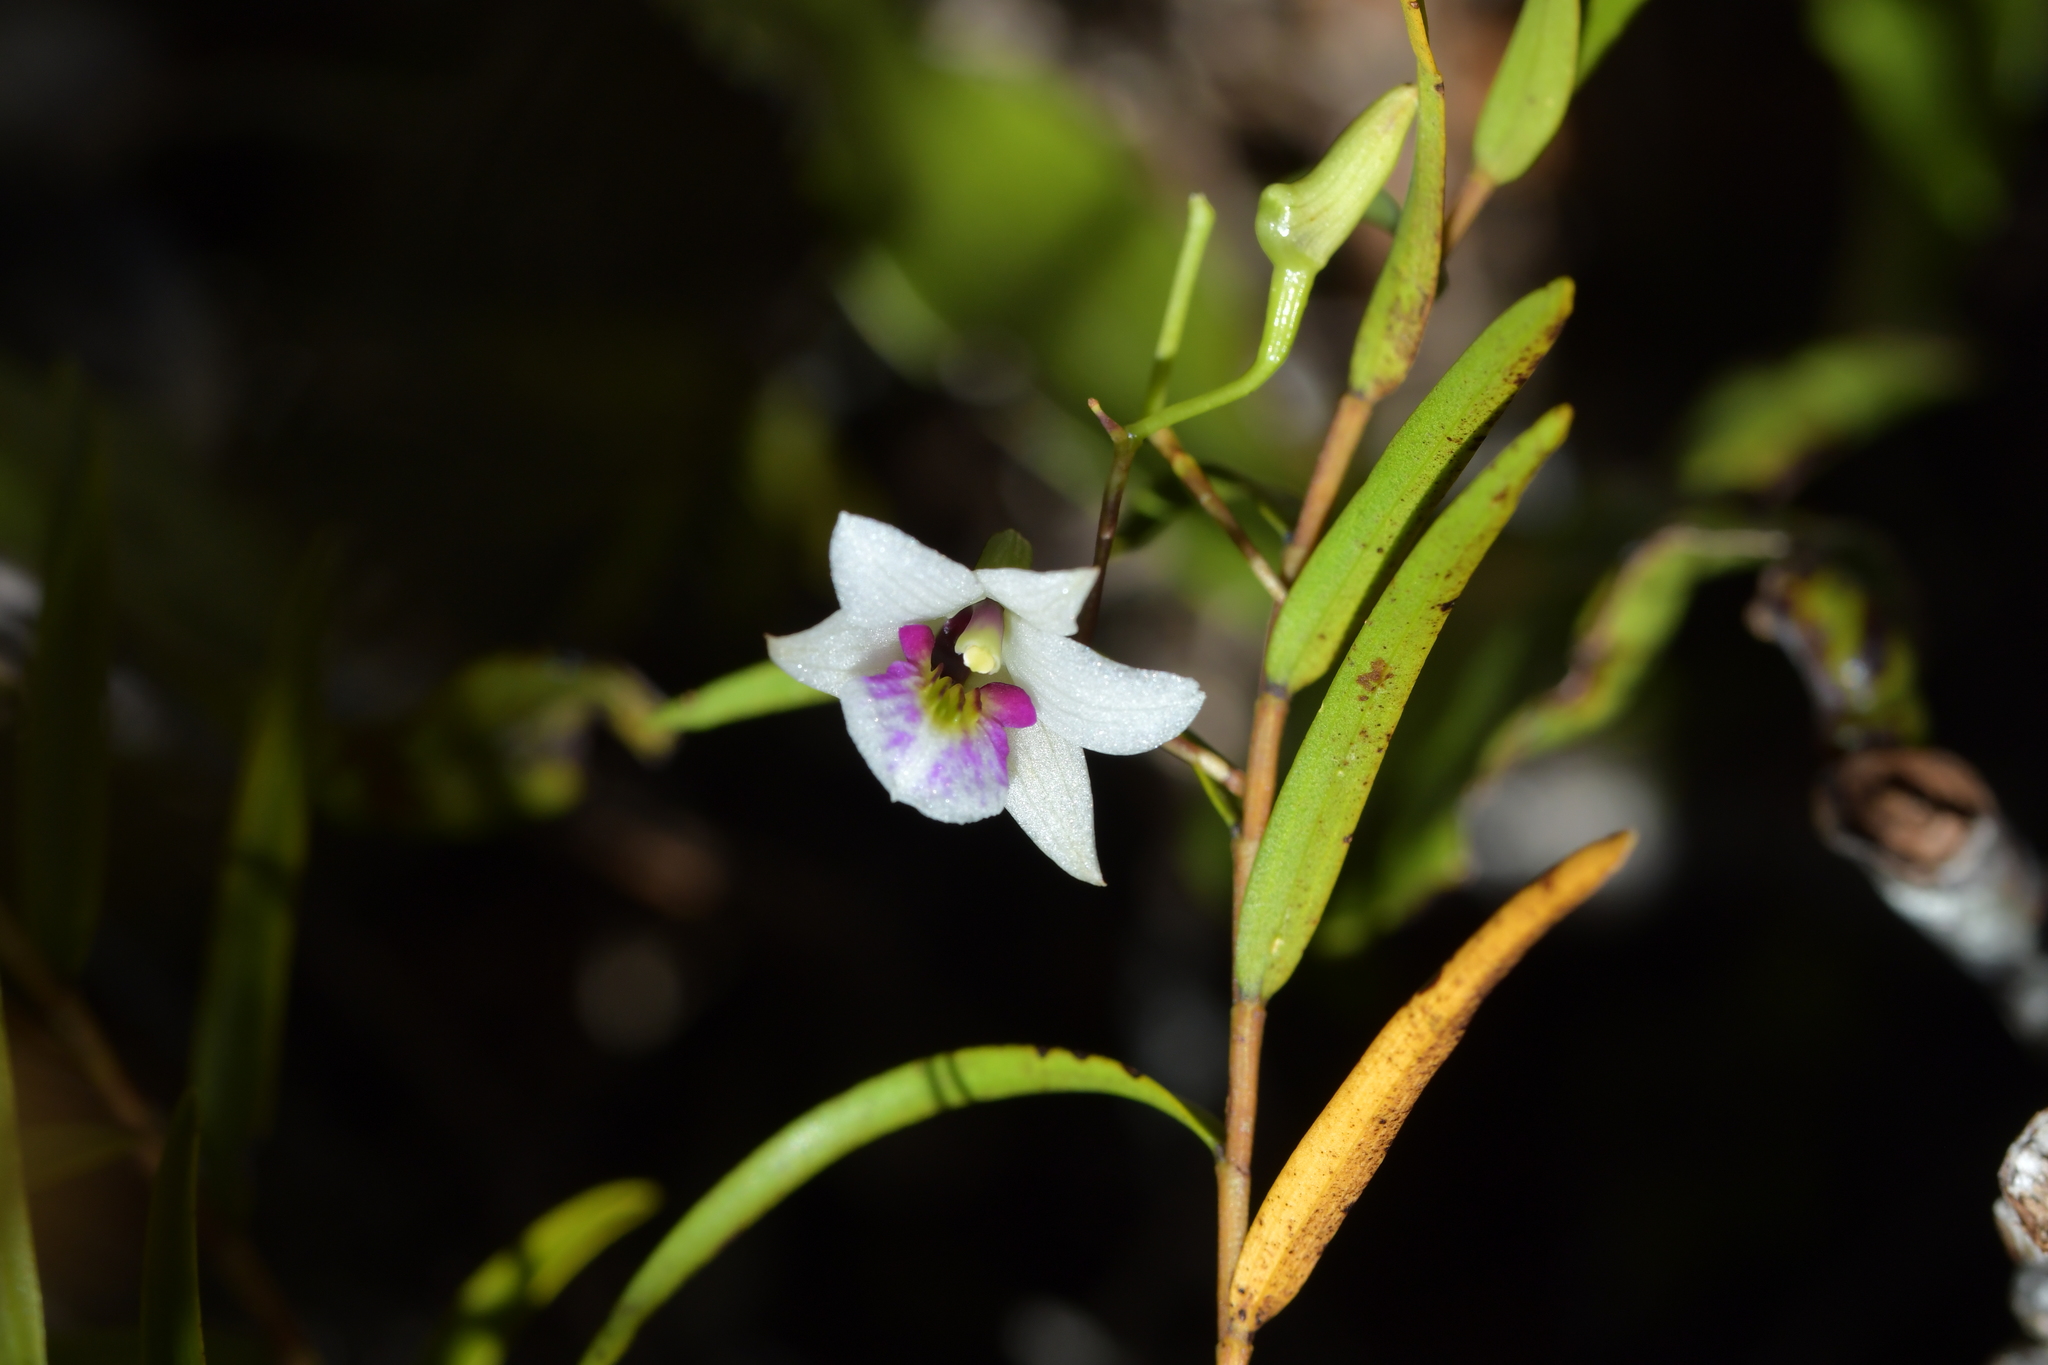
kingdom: Plantae
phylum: Tracheophyta
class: Liliopsida
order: Asparagales
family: Orchidaceae
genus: Dendrobium
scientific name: Dendrobium cunninghamii
